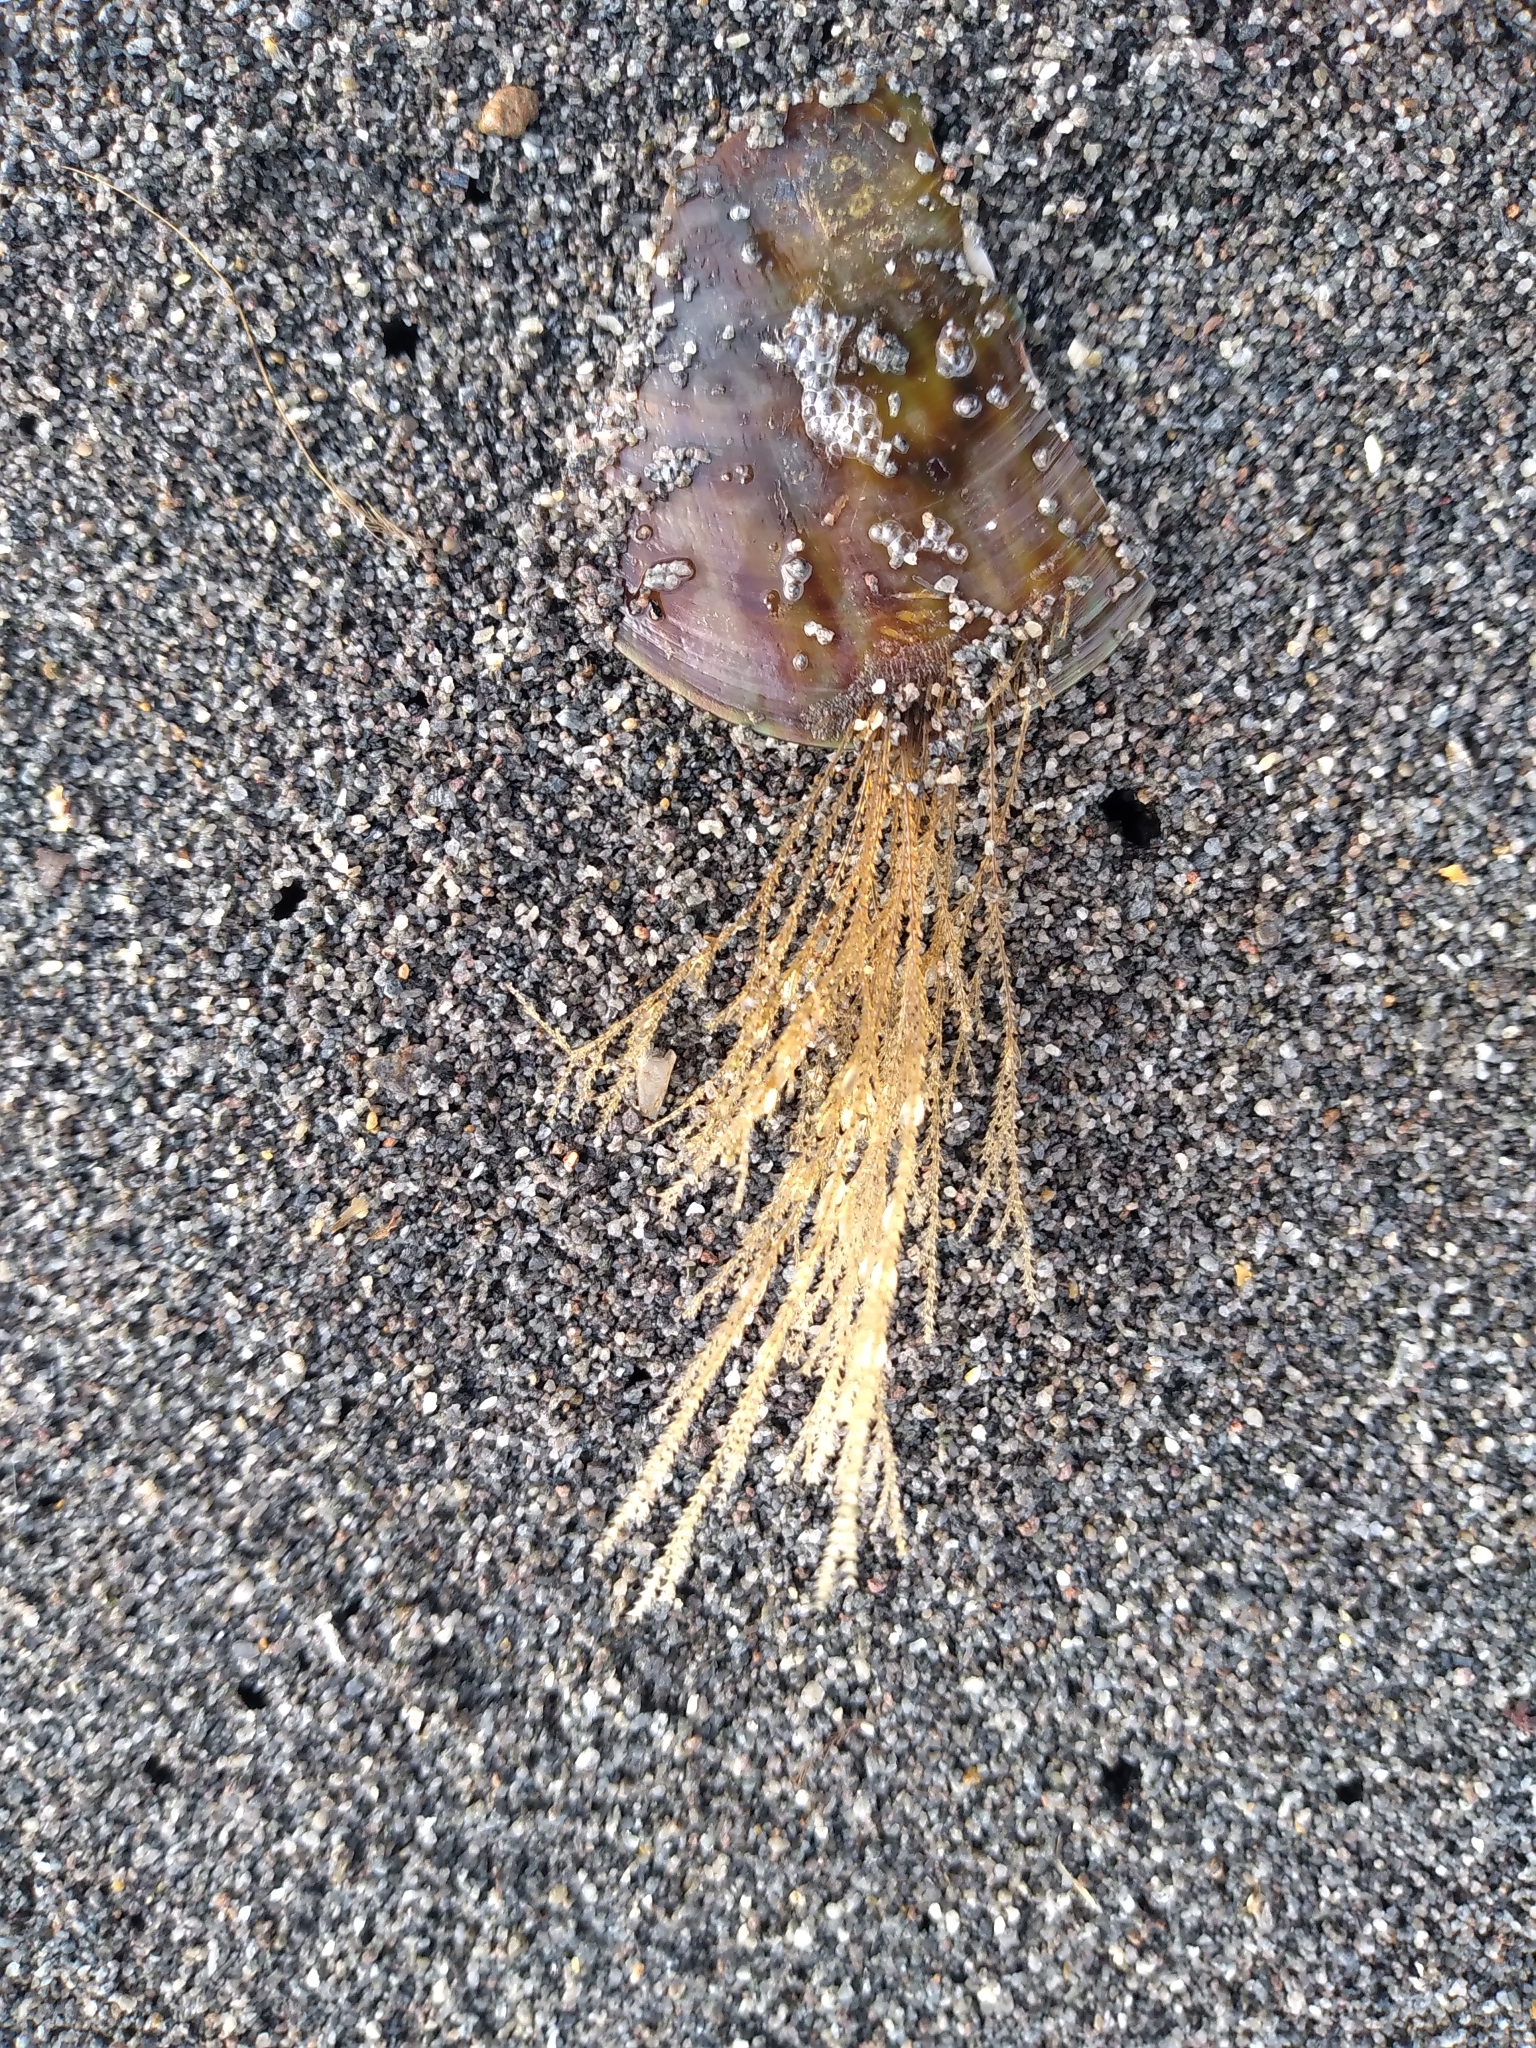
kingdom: Animalia
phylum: Cnidaria
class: Hydrozoa
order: Leptothecata
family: Sertulariidae
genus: Amphisbetia
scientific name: Amphisbetia bispinosa
